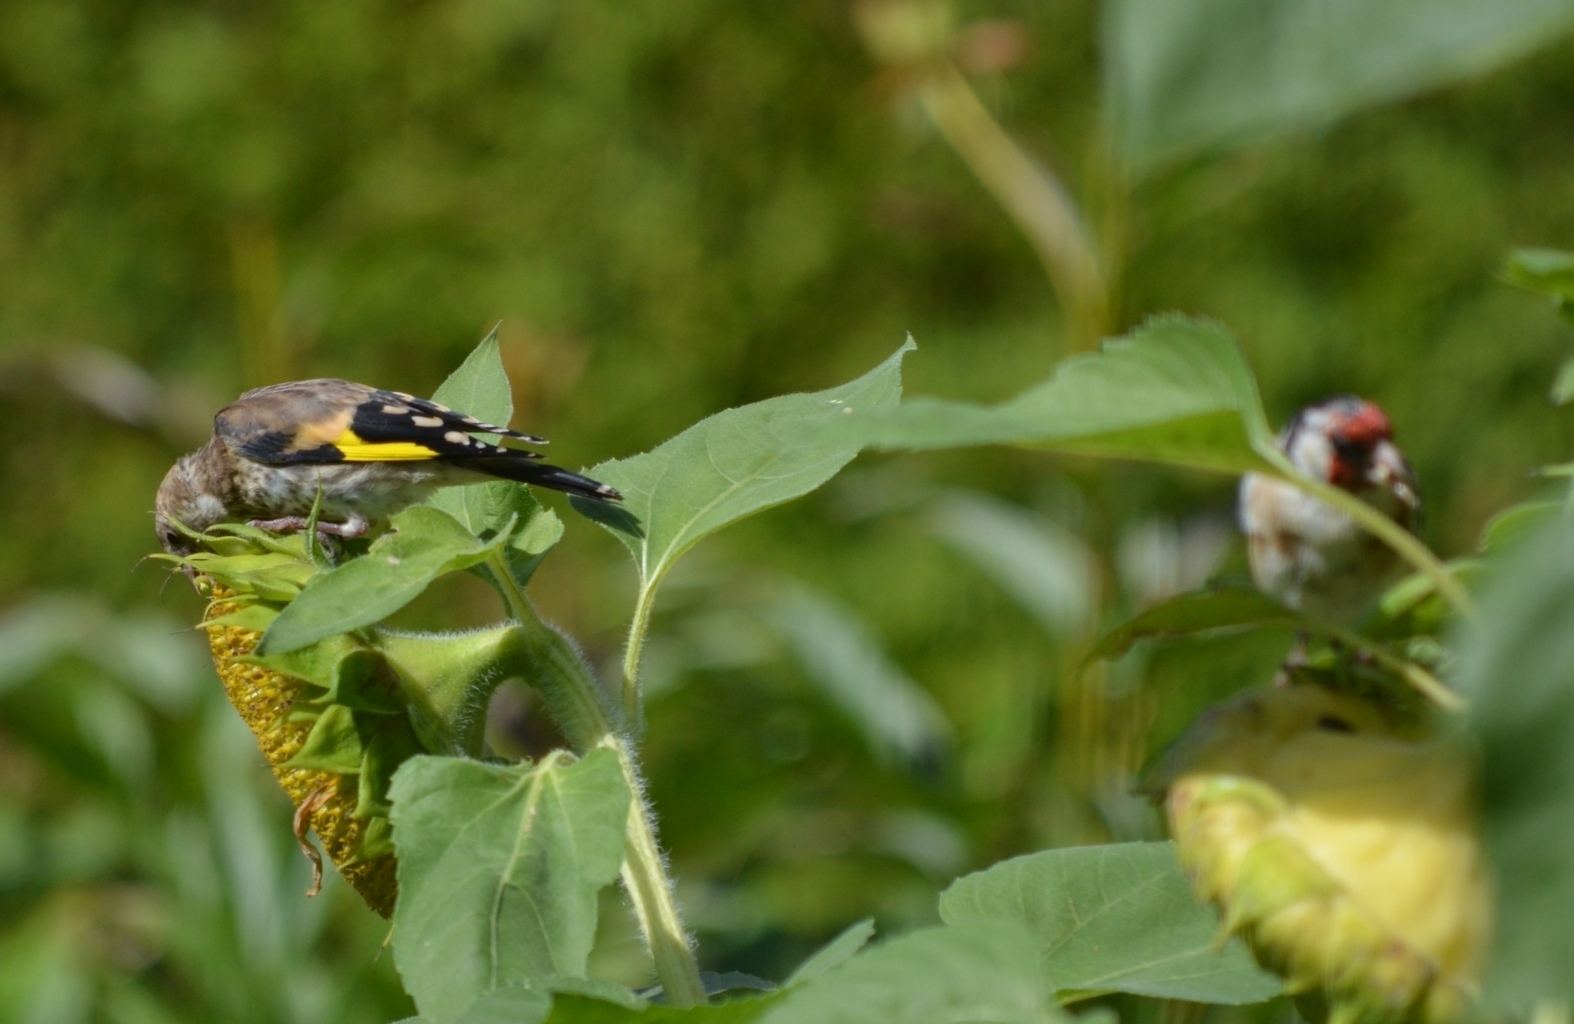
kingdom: Animalia
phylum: Chordata
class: Aves
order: Passeriformes
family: Fringillidae
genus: Carduelis
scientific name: Carduelis carduelis
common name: European goldfinch
